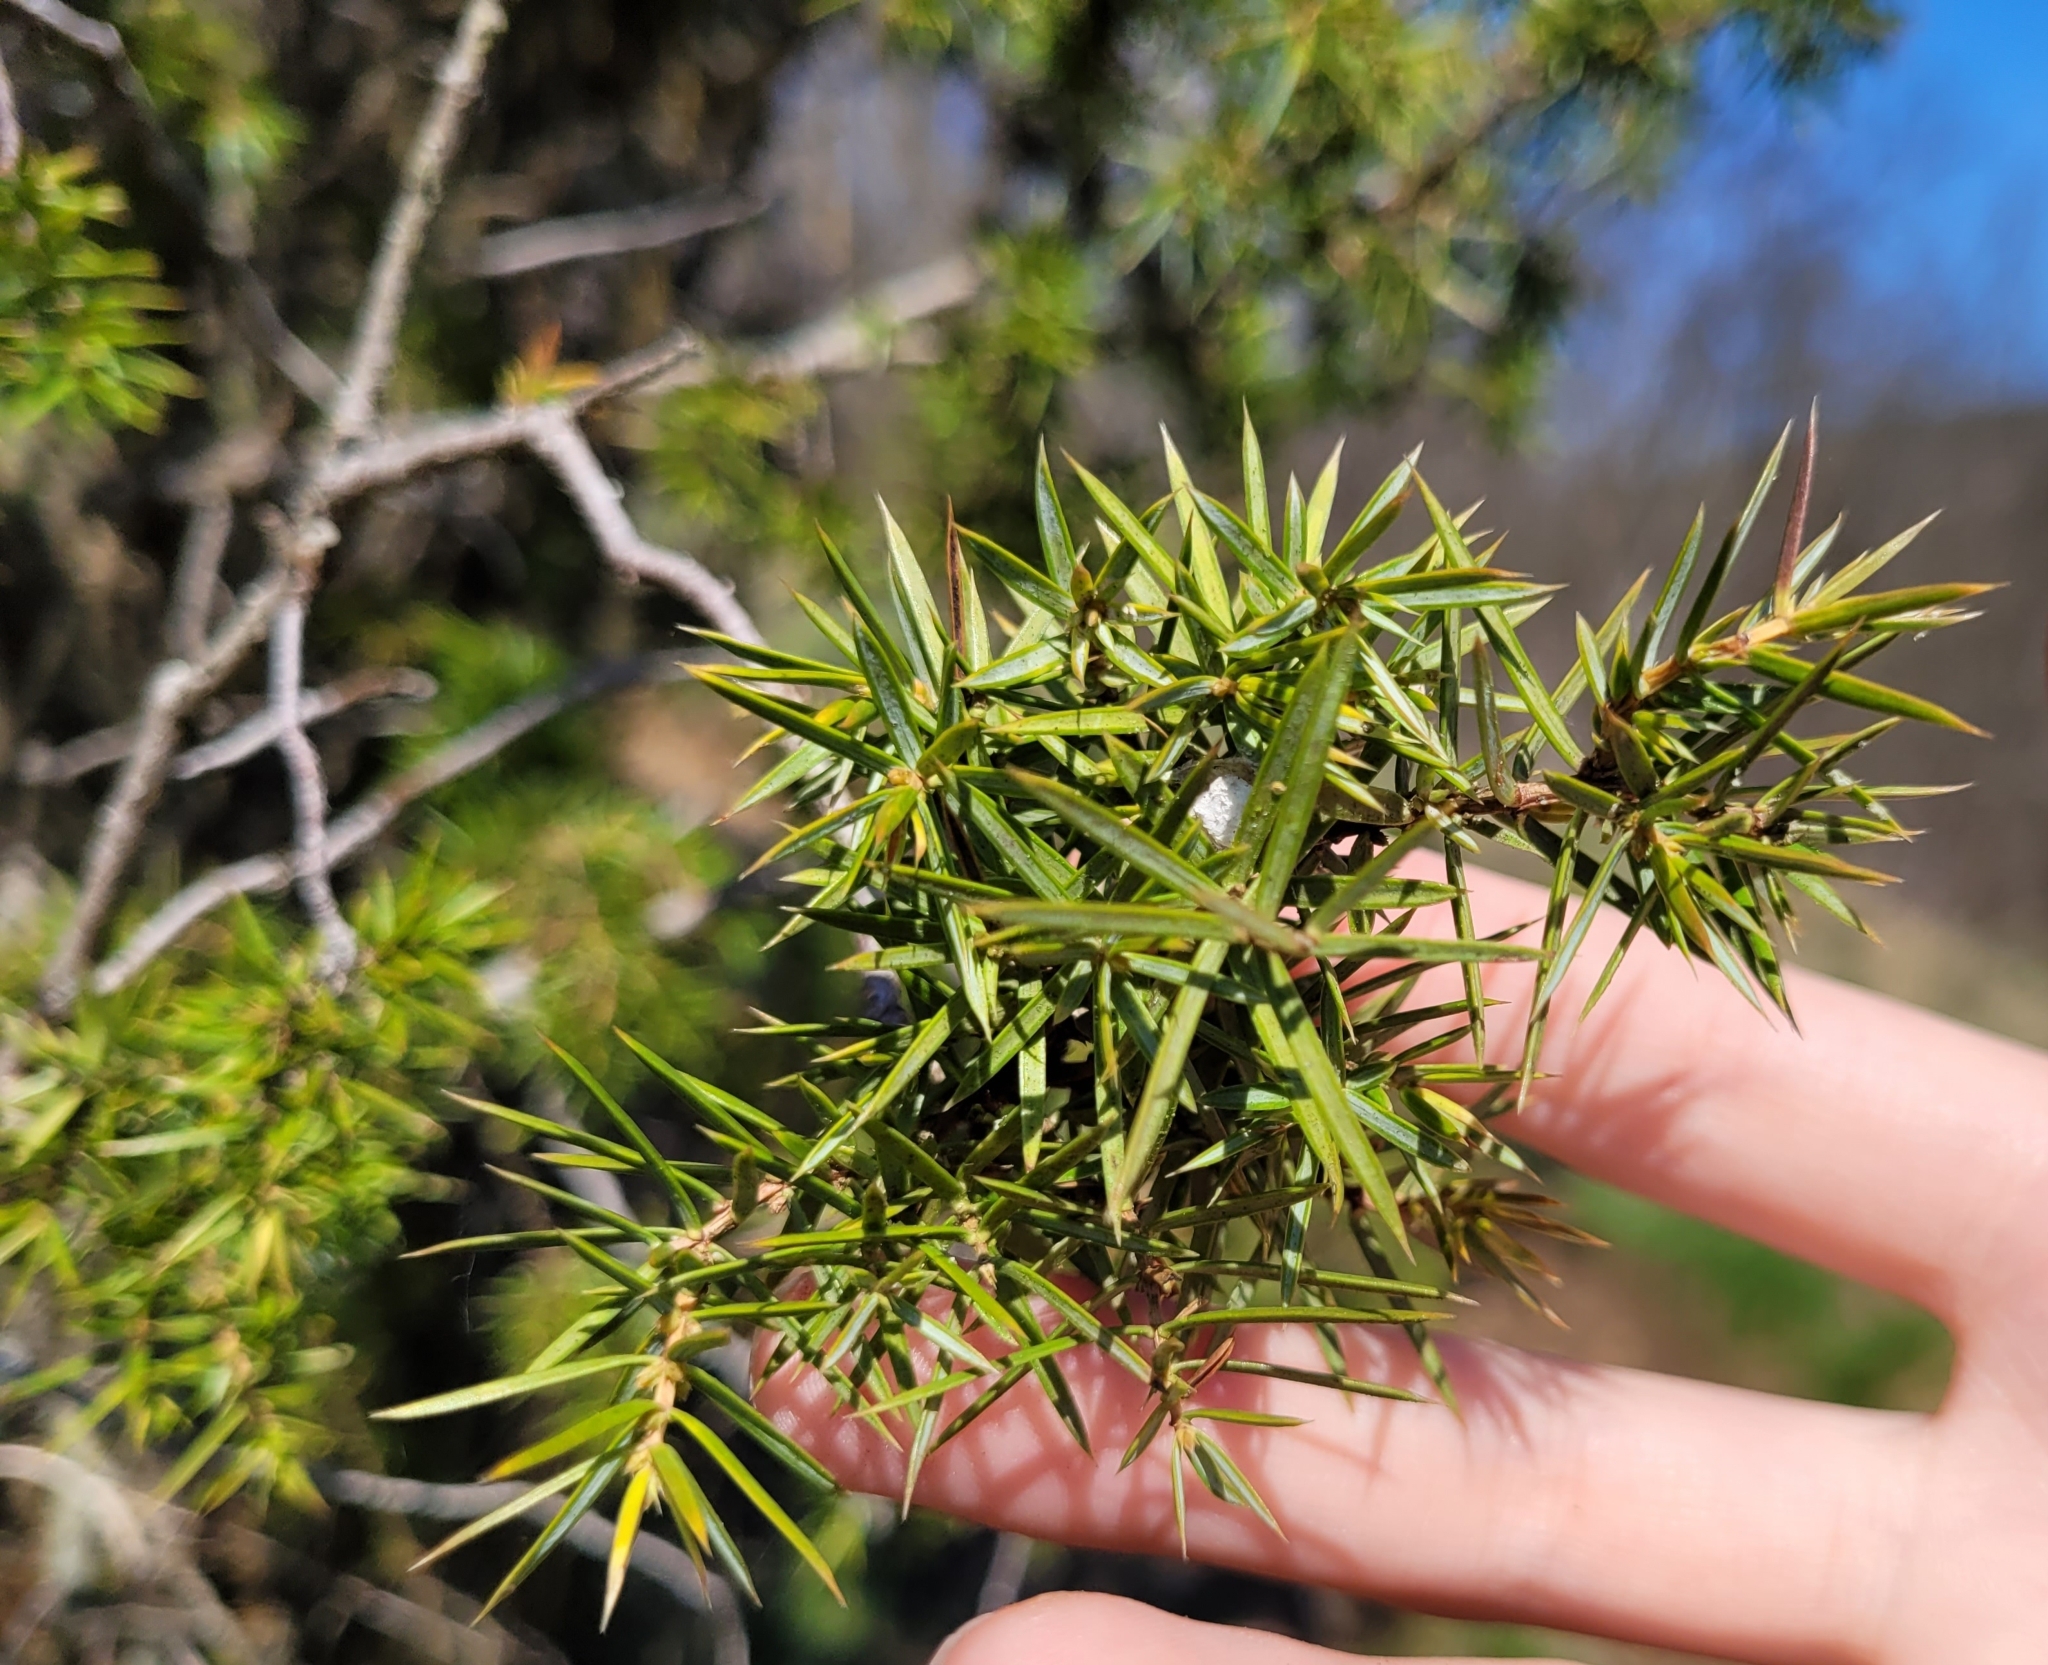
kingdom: Plantae
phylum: Tracheophyta
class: Pinopsida
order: Pinales
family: Cupressaceae
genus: Juniperus
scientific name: Juniperus communis
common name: Common juniper
